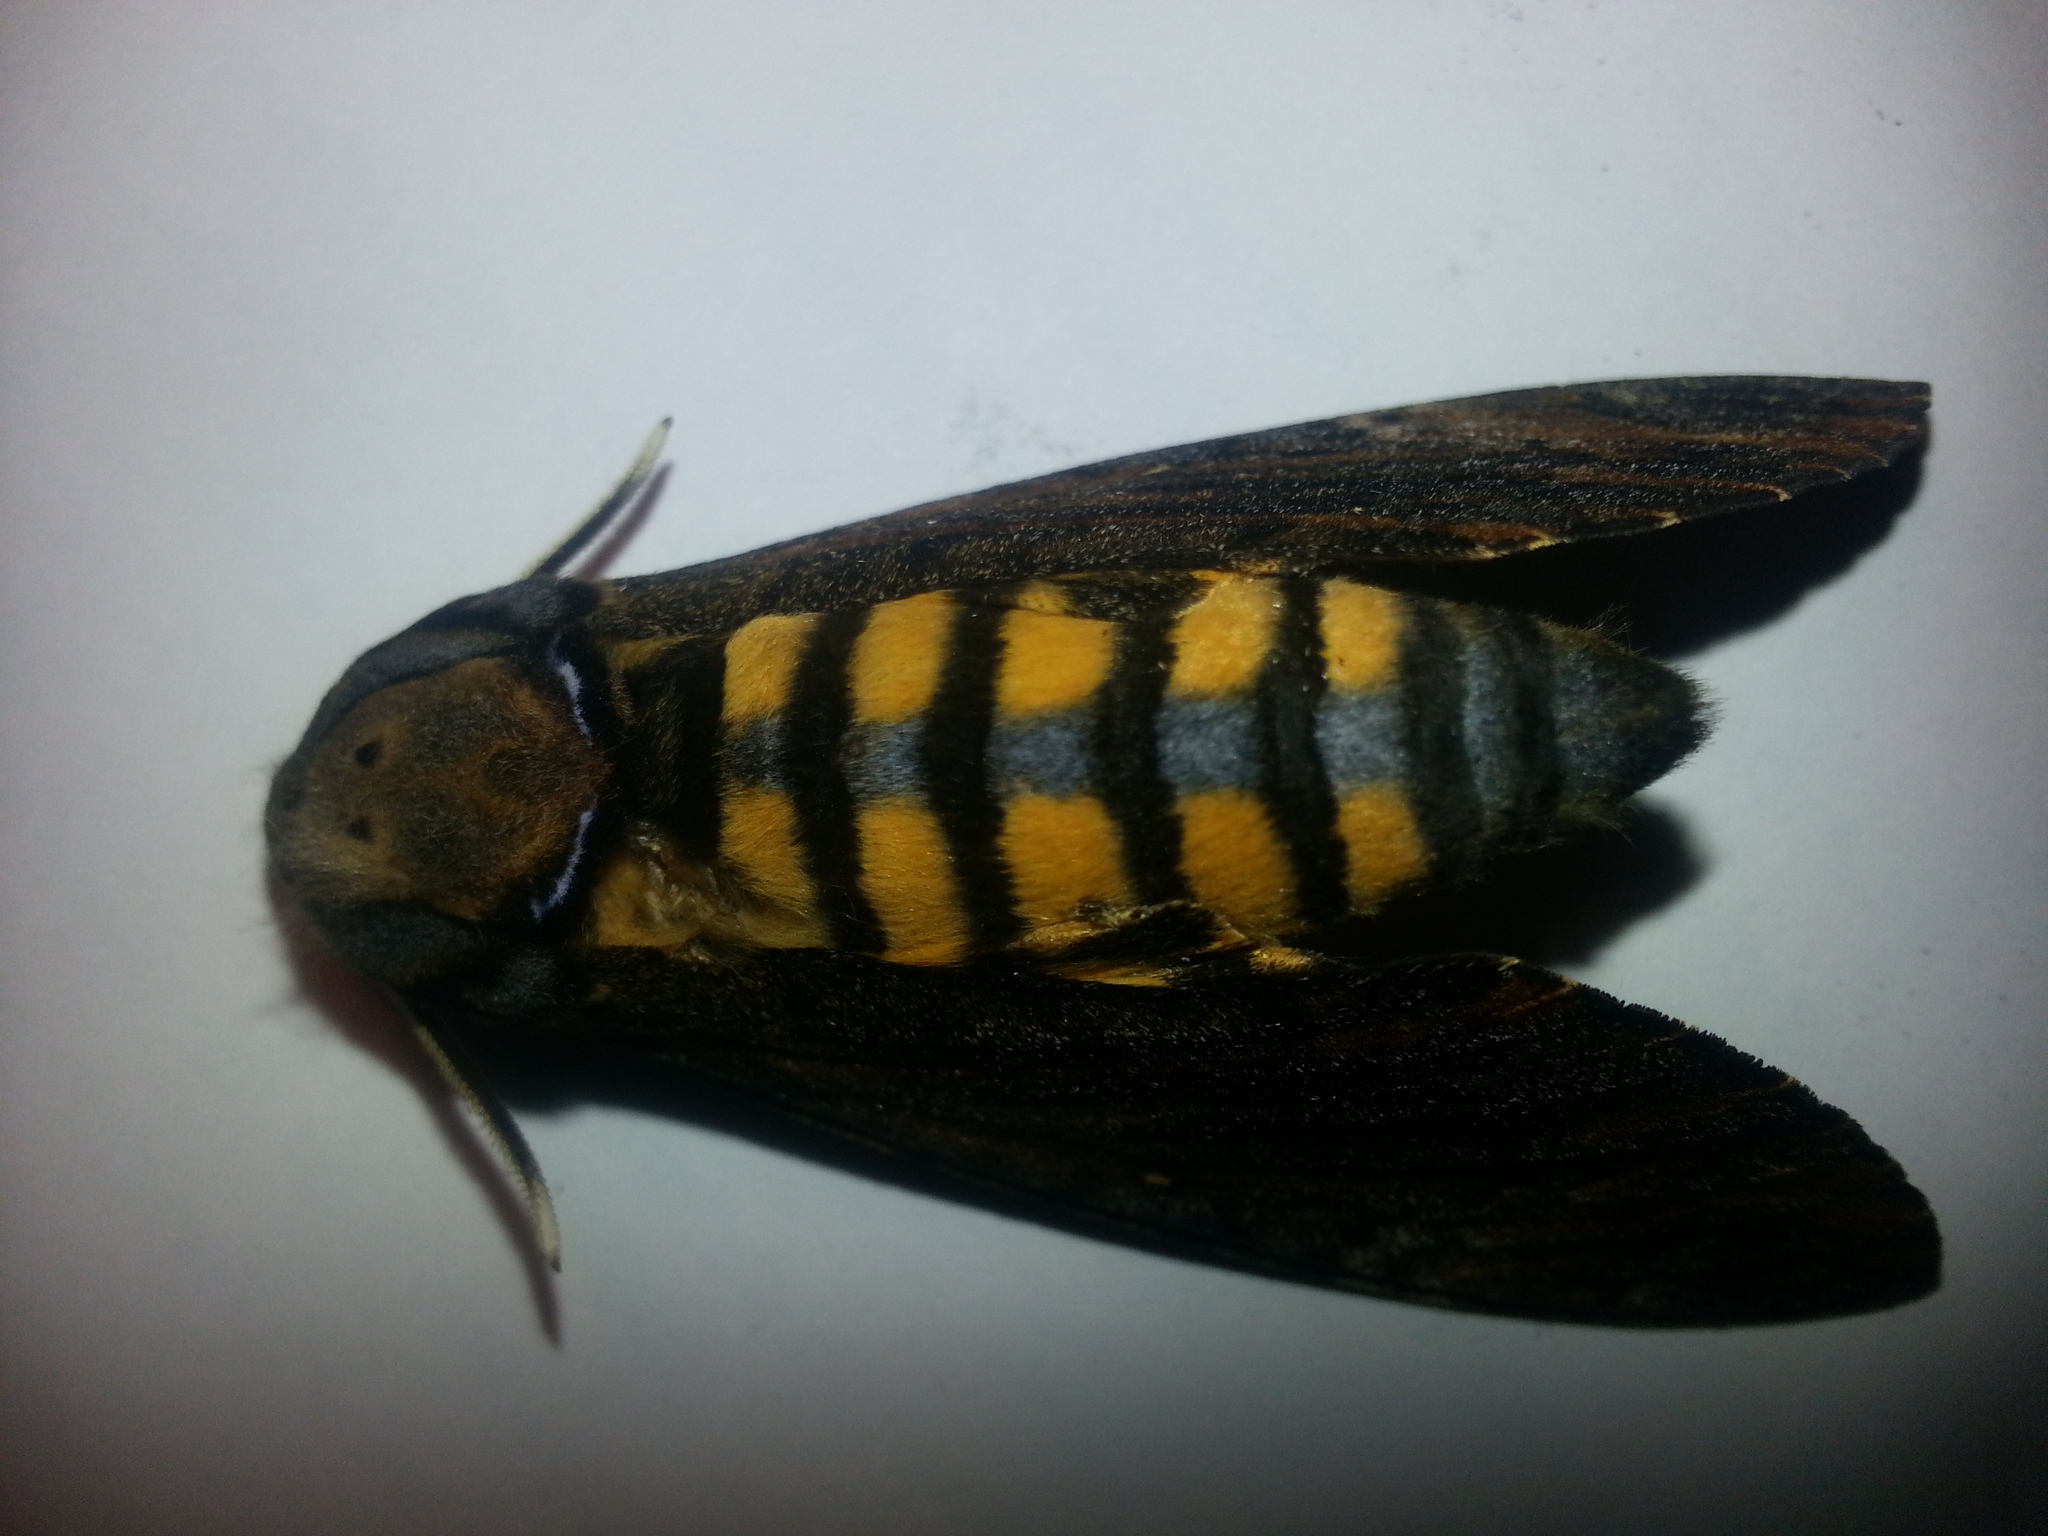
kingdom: Animalia
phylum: Arthropoda
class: Insecta
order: Lepidoptera
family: Sphingidae
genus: Acherontia
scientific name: Acherontia styx
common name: Death's-head hawk moth
